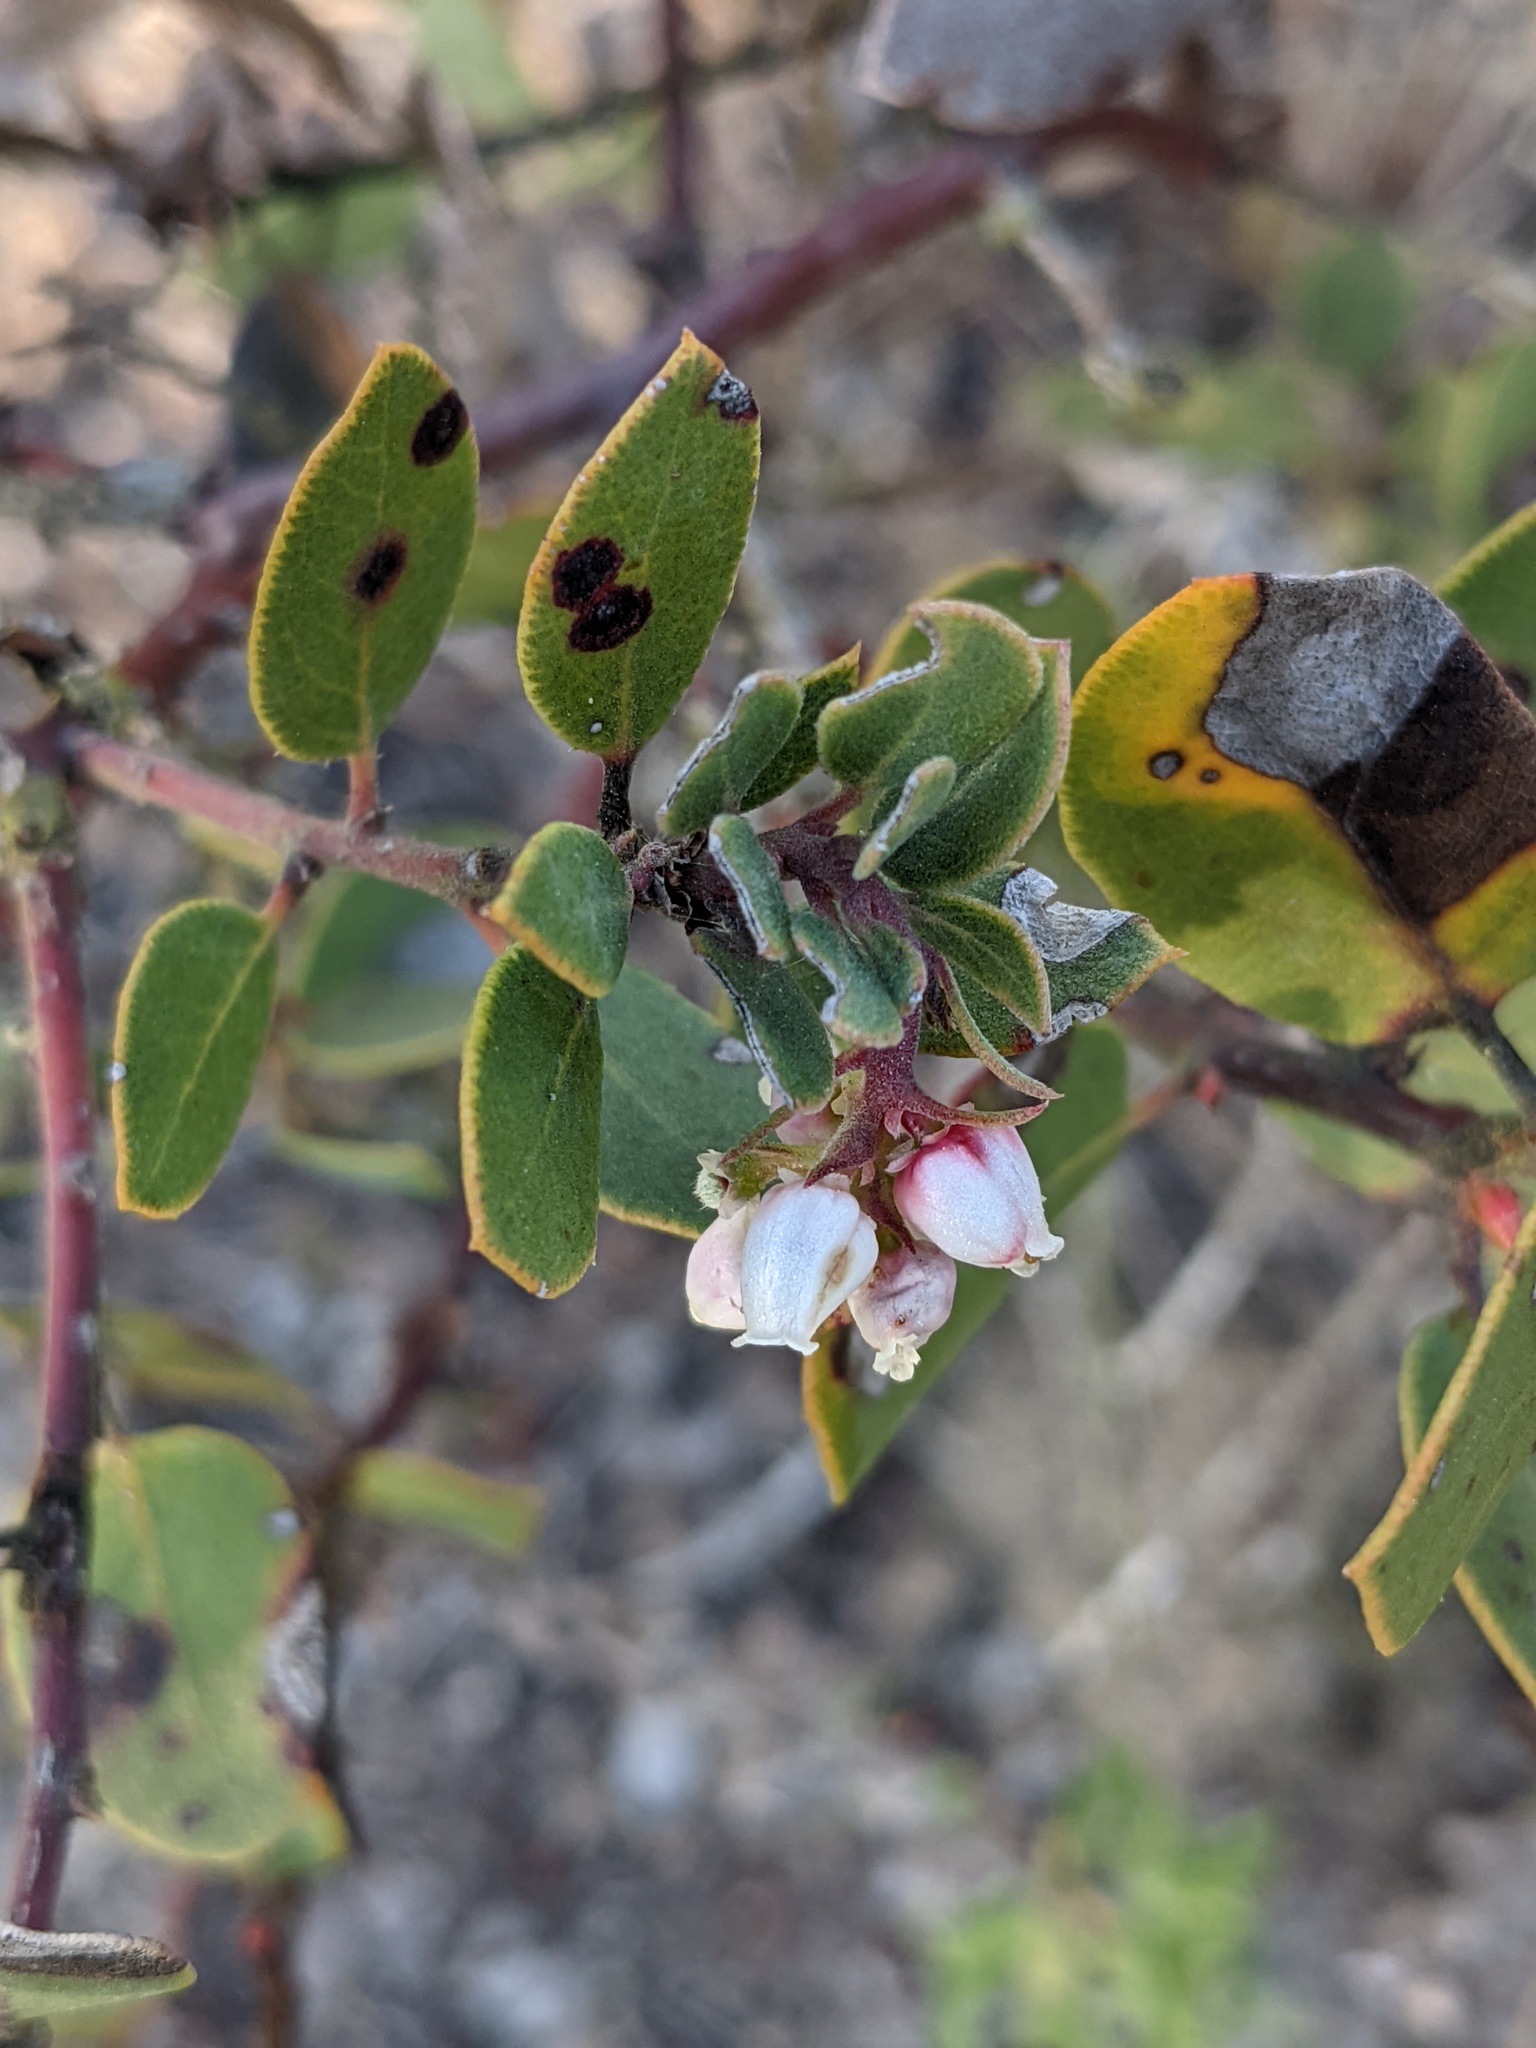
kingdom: Plantae
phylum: Tracheophyta
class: Magnoliopsida
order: Ericales
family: Ericaceae
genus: Arctostaphylos
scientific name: Arctostaphylos glandulosa
